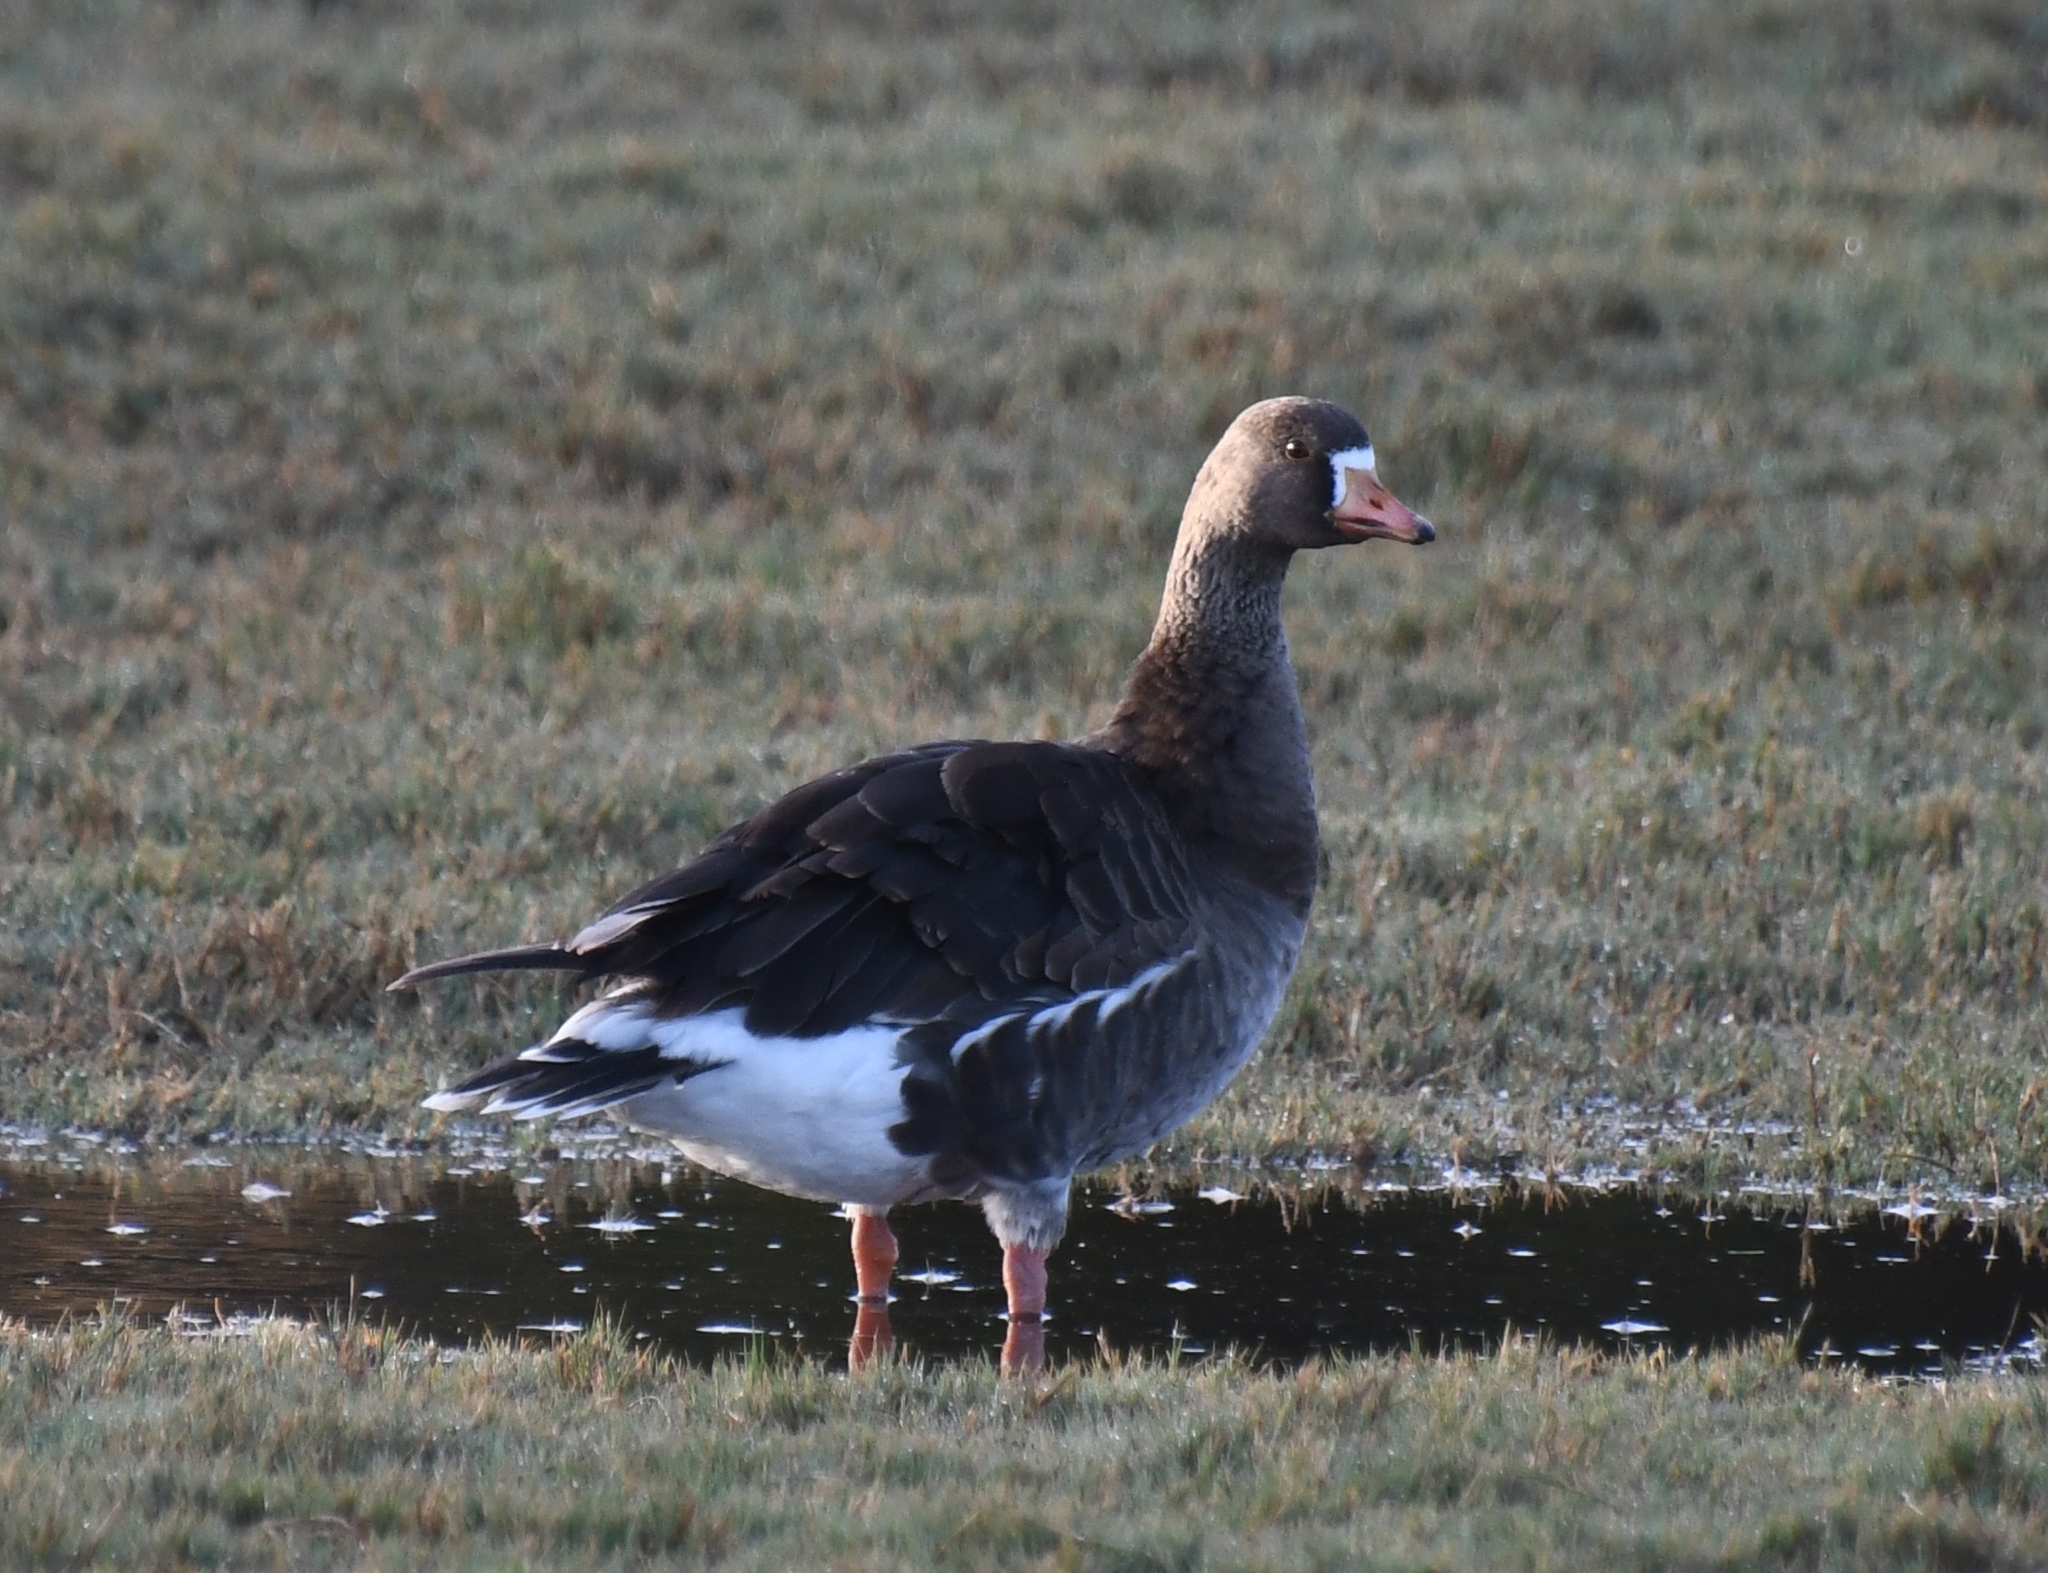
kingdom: Animalia
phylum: Chordata
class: Aves
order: Anseriformes
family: Anatidae
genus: Anser
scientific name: Anser albifrons
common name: Greater white-fronted goose
